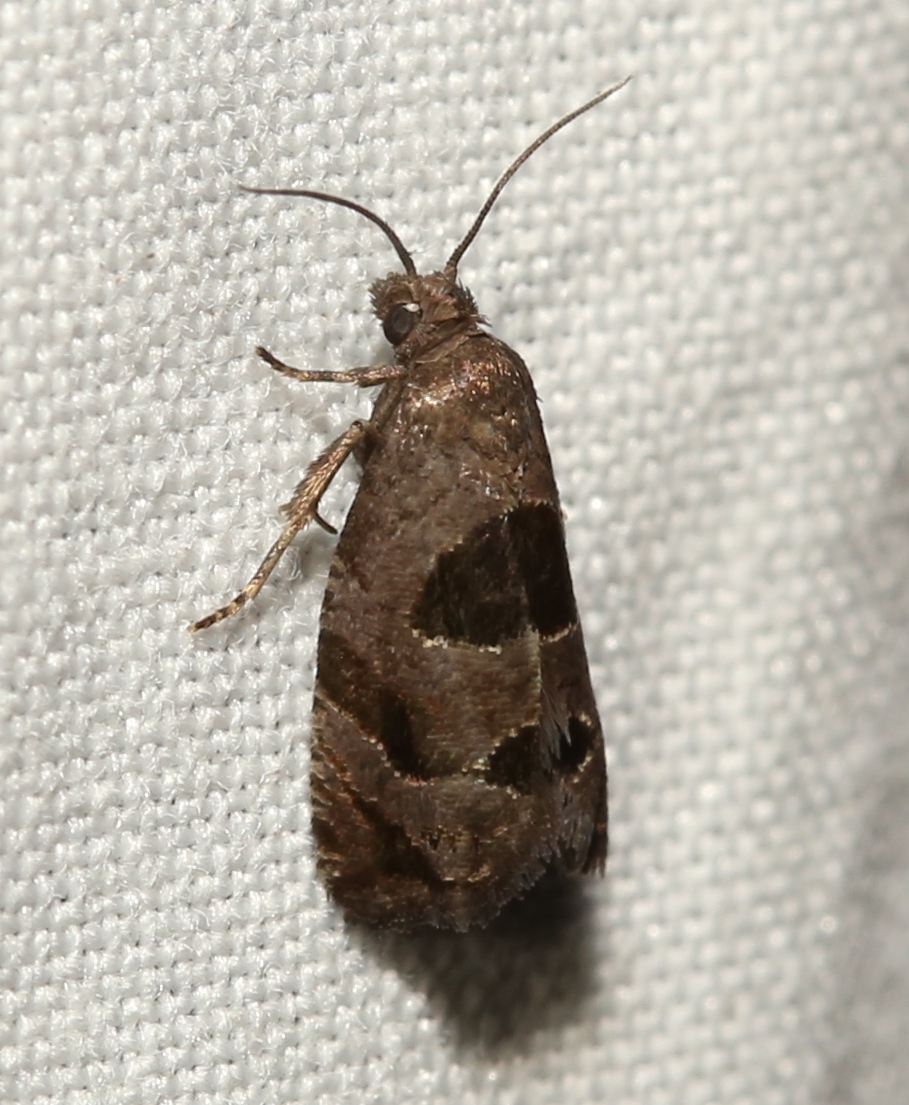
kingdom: Animalia
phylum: Arthropoda
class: Insecta
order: Lepidoptera
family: Tortricidae
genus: Epiblema
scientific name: Epiblema brightonana
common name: Brighton's epiblema moth
